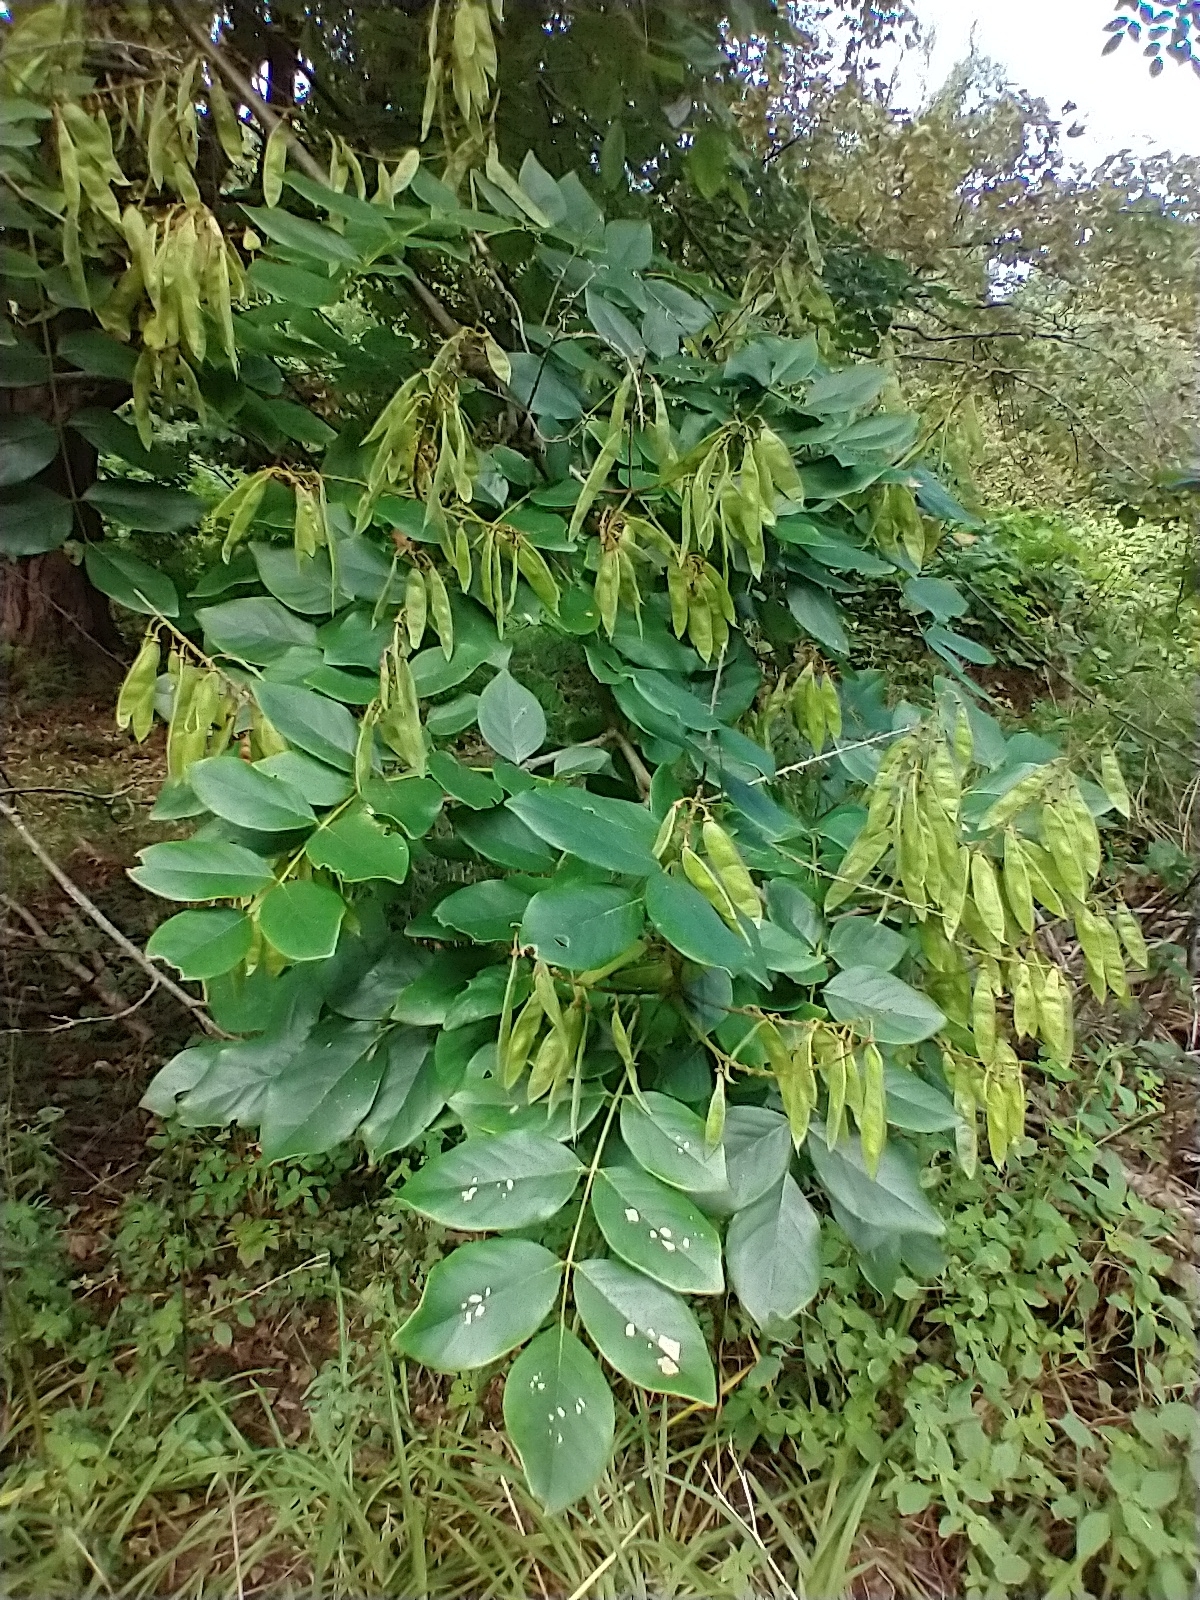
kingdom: Plantae
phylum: Tracheophyta
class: Magnoliopsida
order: Fabales
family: Fabaceae
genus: Maackia
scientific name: Maackia amurensis
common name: Amur maackia
